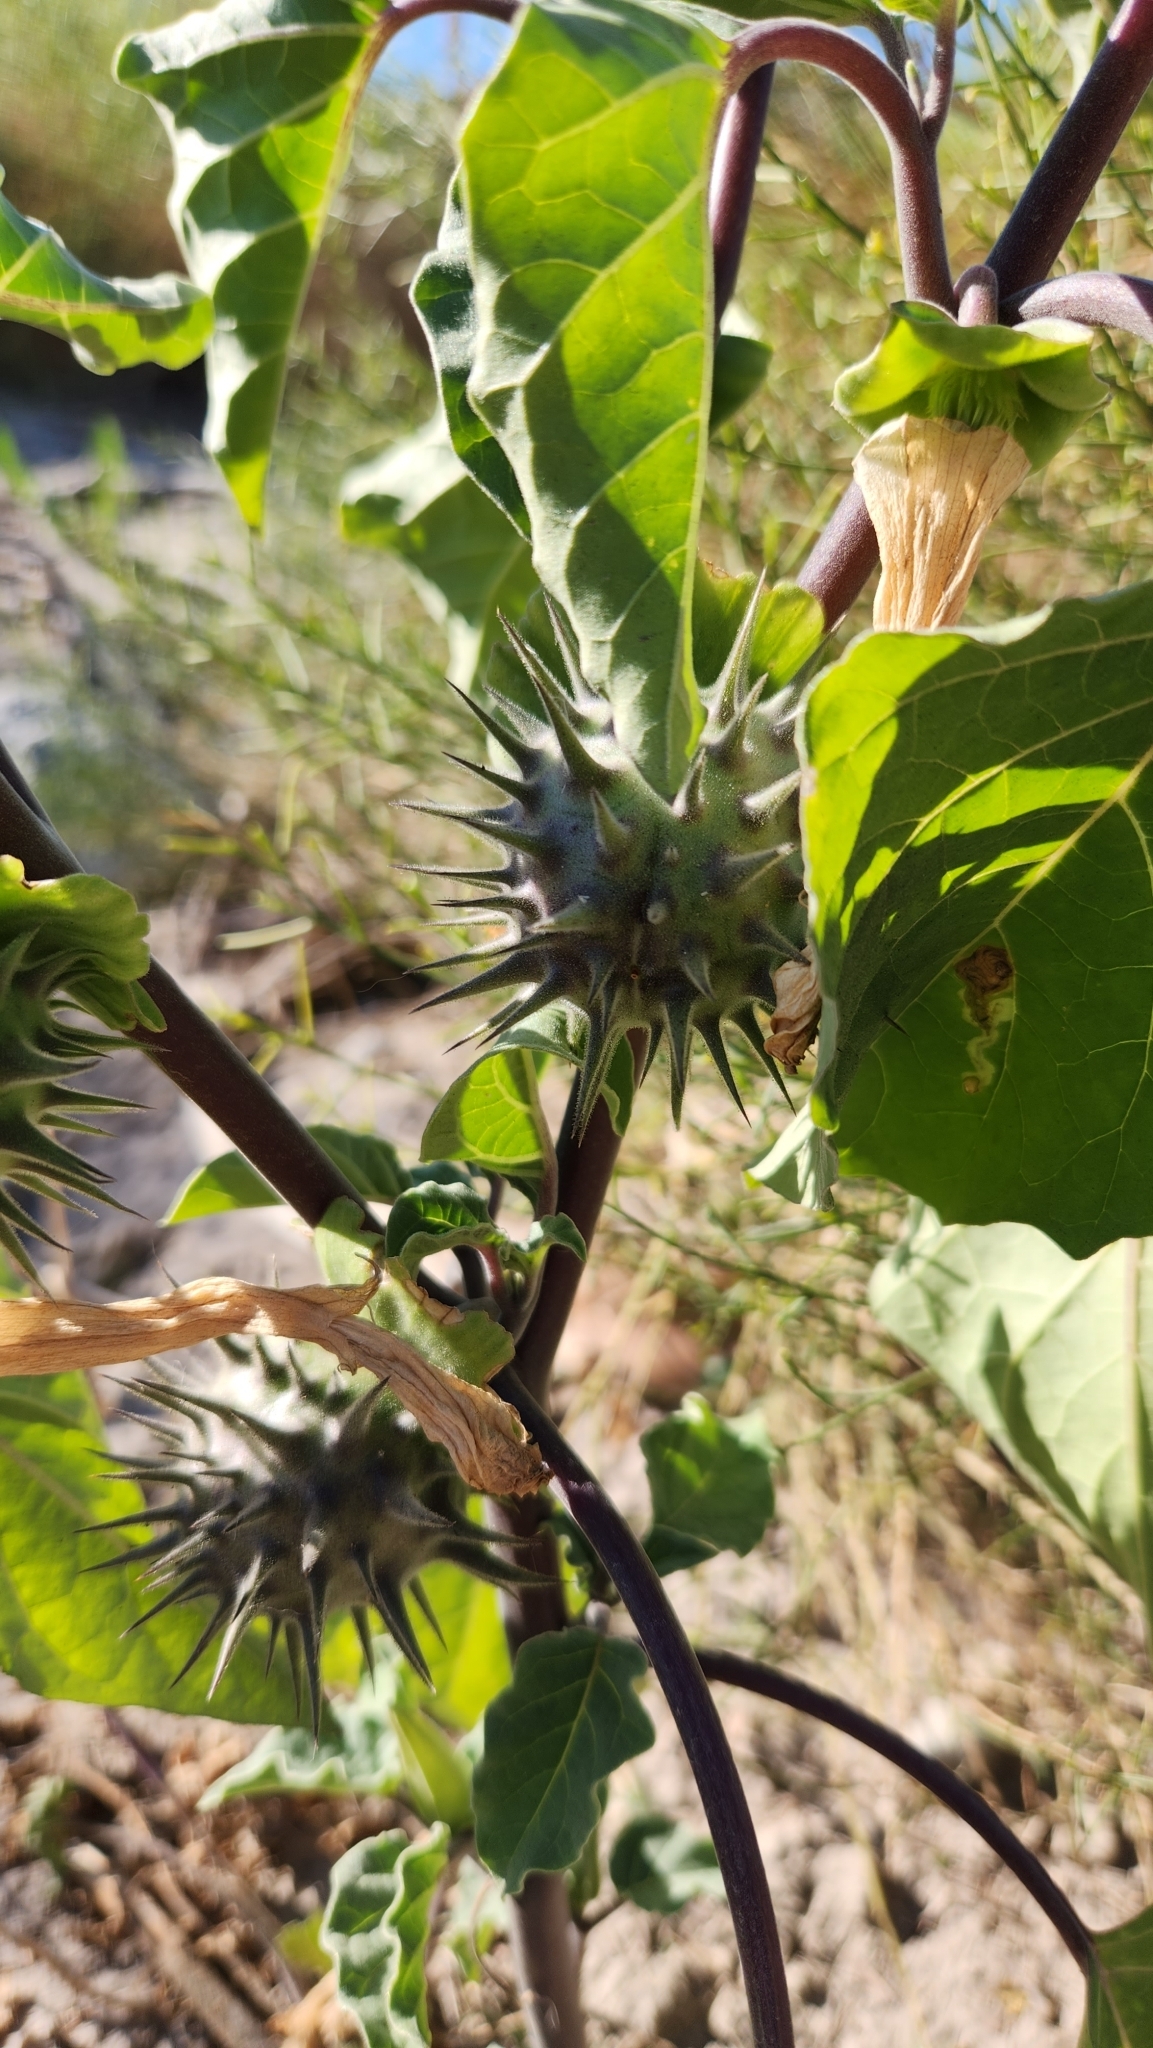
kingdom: Plantae
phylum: Tracheophyta
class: Magnoliopsida
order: Solanales
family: Solanaceae
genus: Datura
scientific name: Datura discolor
